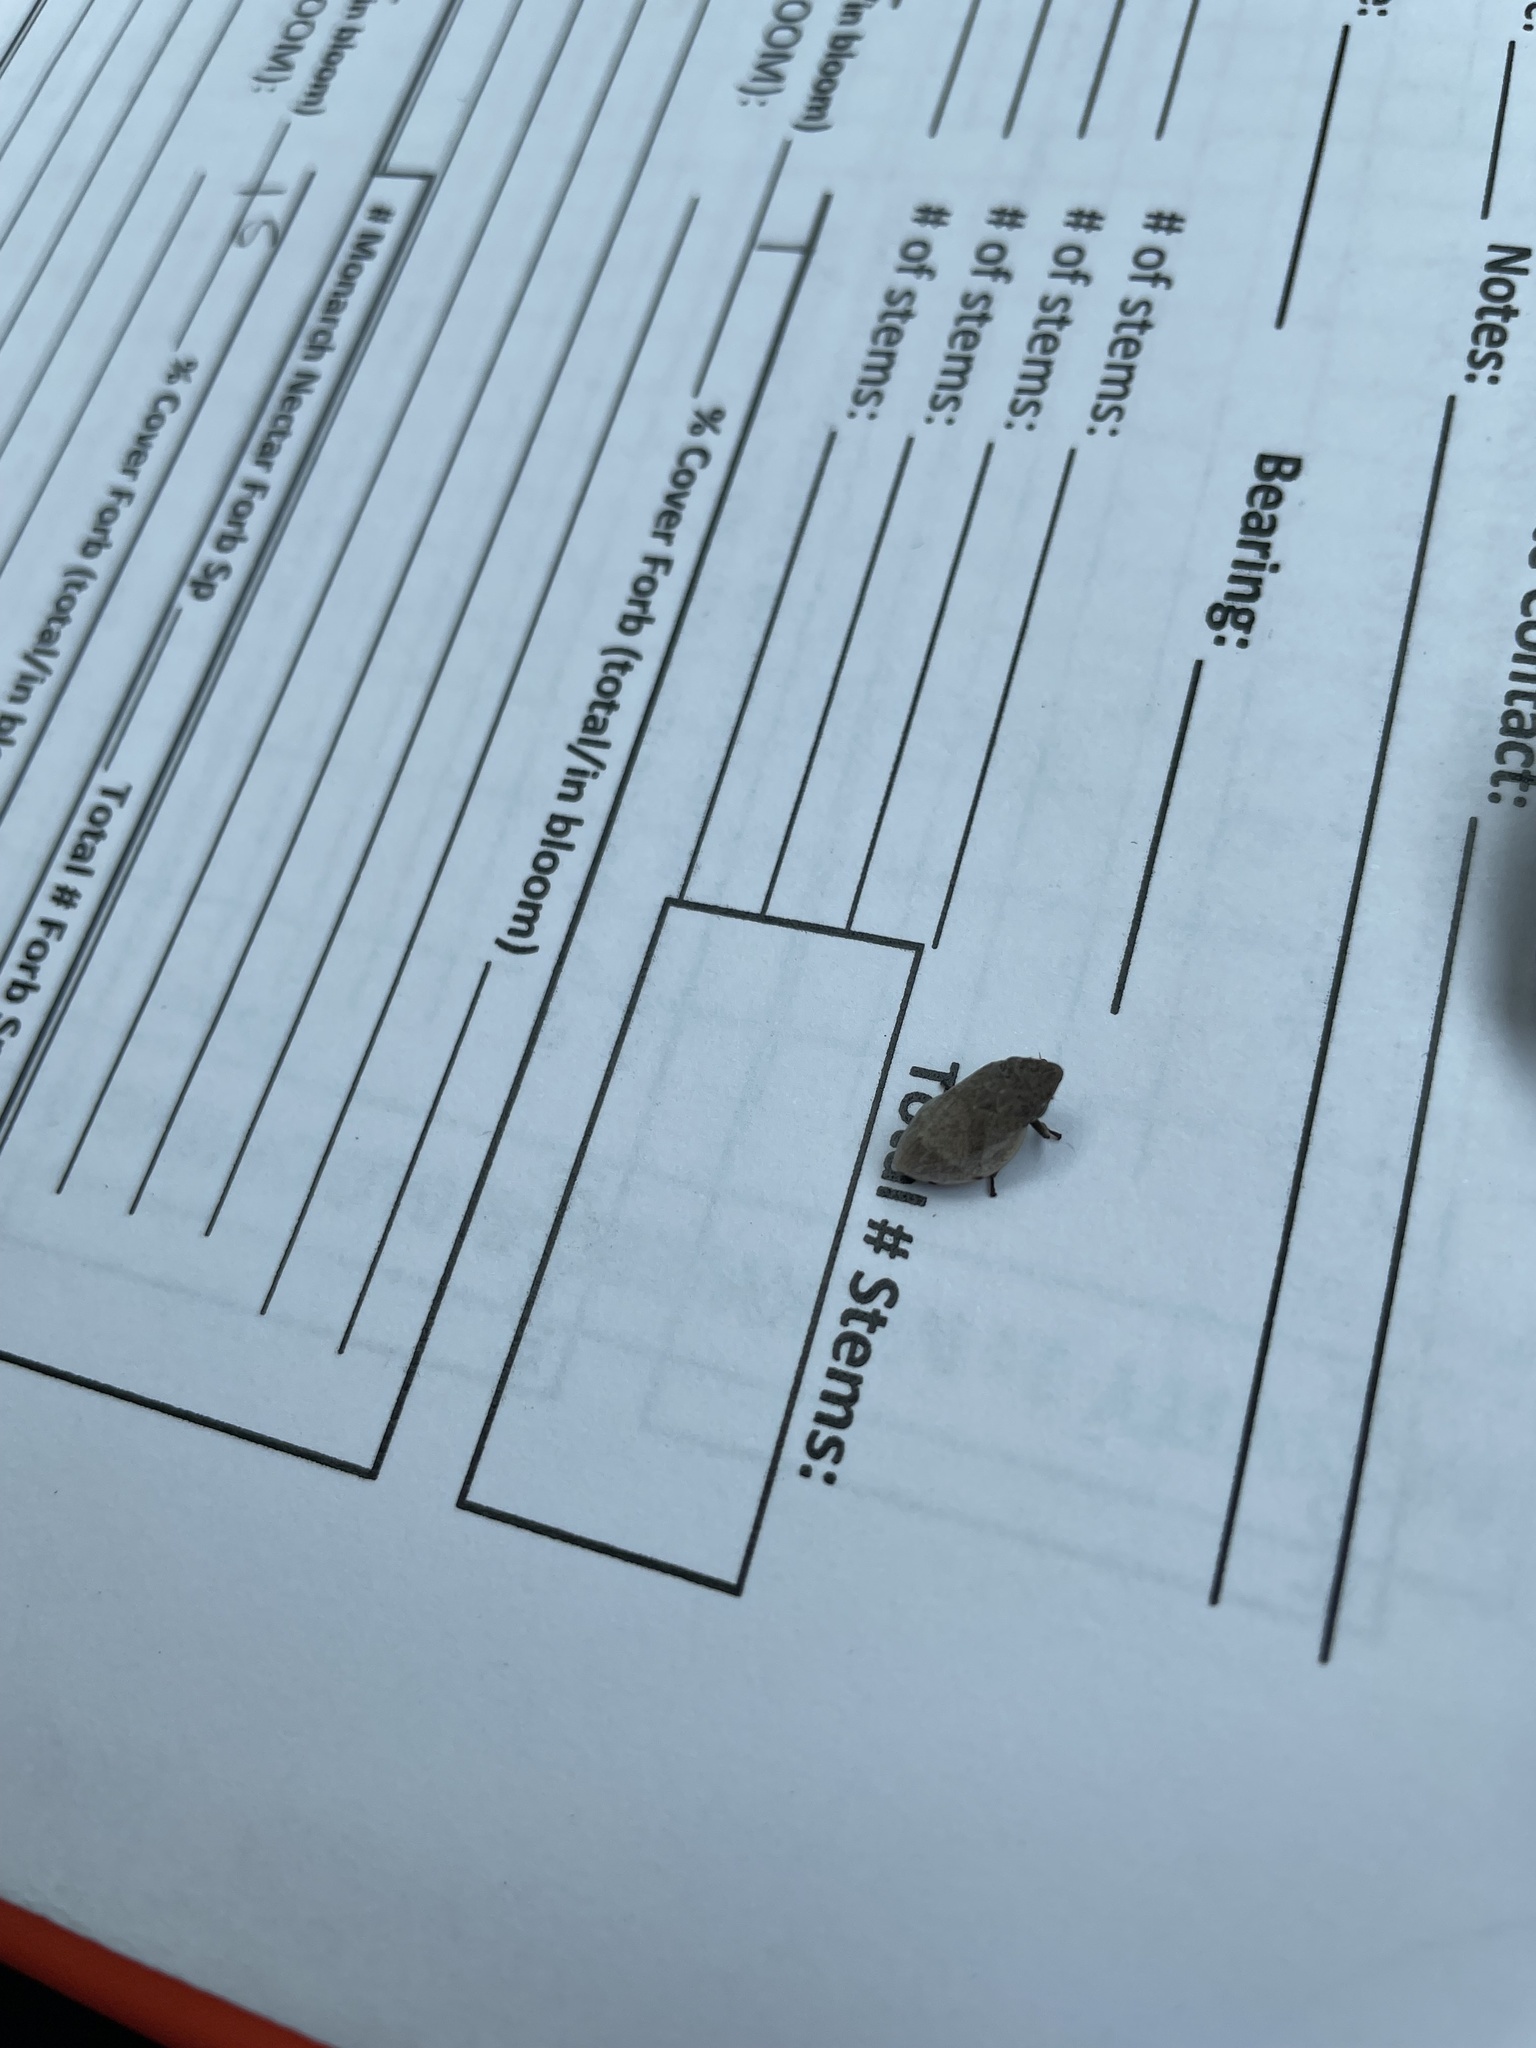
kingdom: Animalia
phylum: Arthropoda
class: Insecta
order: Hemiptera
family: Aphrophoridae
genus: Lepyronia
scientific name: Lepyronia gibbosa
